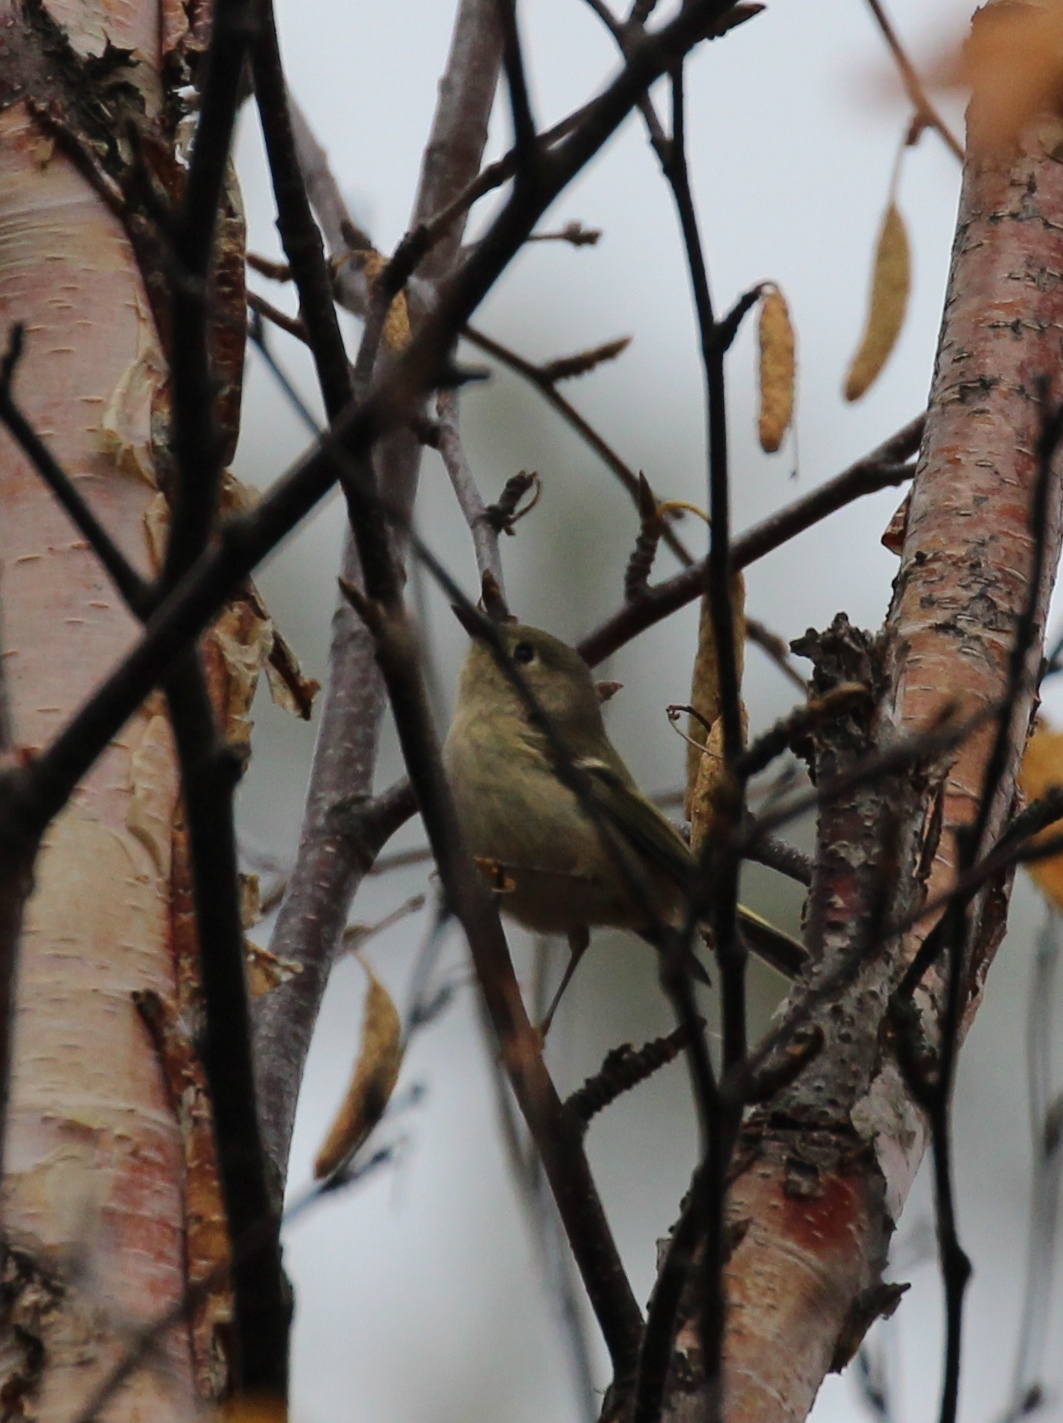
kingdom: Animalia
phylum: Chordata
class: Aves
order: Passeriformes
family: Regulidae
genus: Regulus
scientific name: Regulus calendula
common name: Ruby-crowned kinglet
